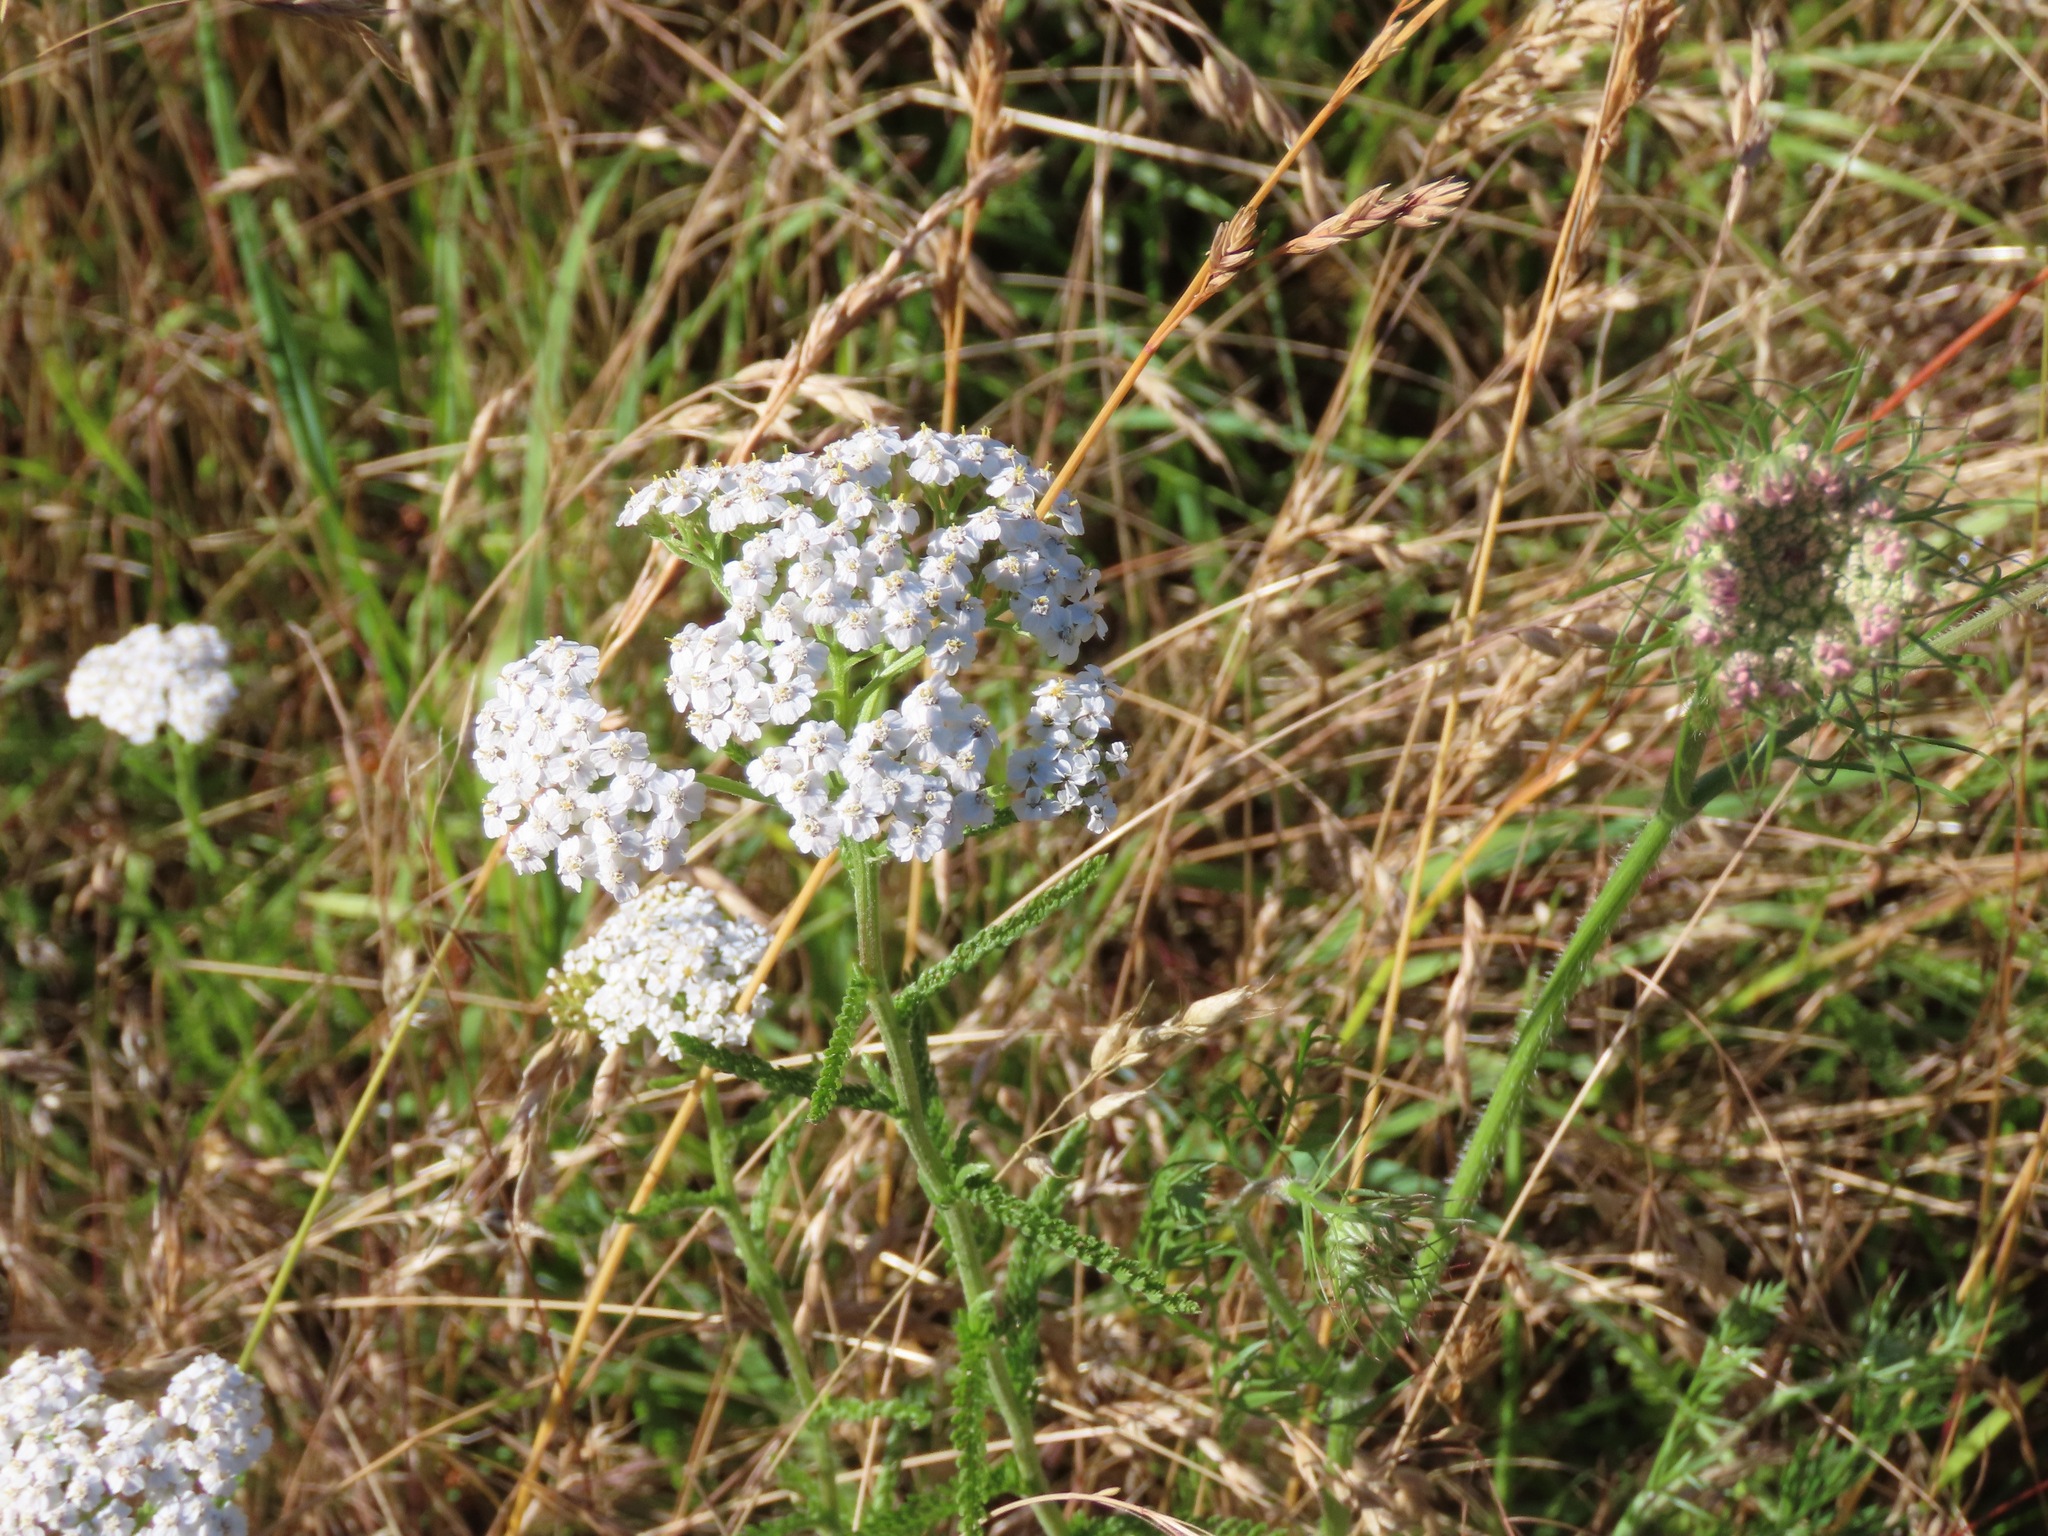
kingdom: Plantae
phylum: Tracheophyta
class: Magnoliopsida
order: Asterales
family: Asteraceae
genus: Achillea
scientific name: Achillea millefolium
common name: Yarrow
